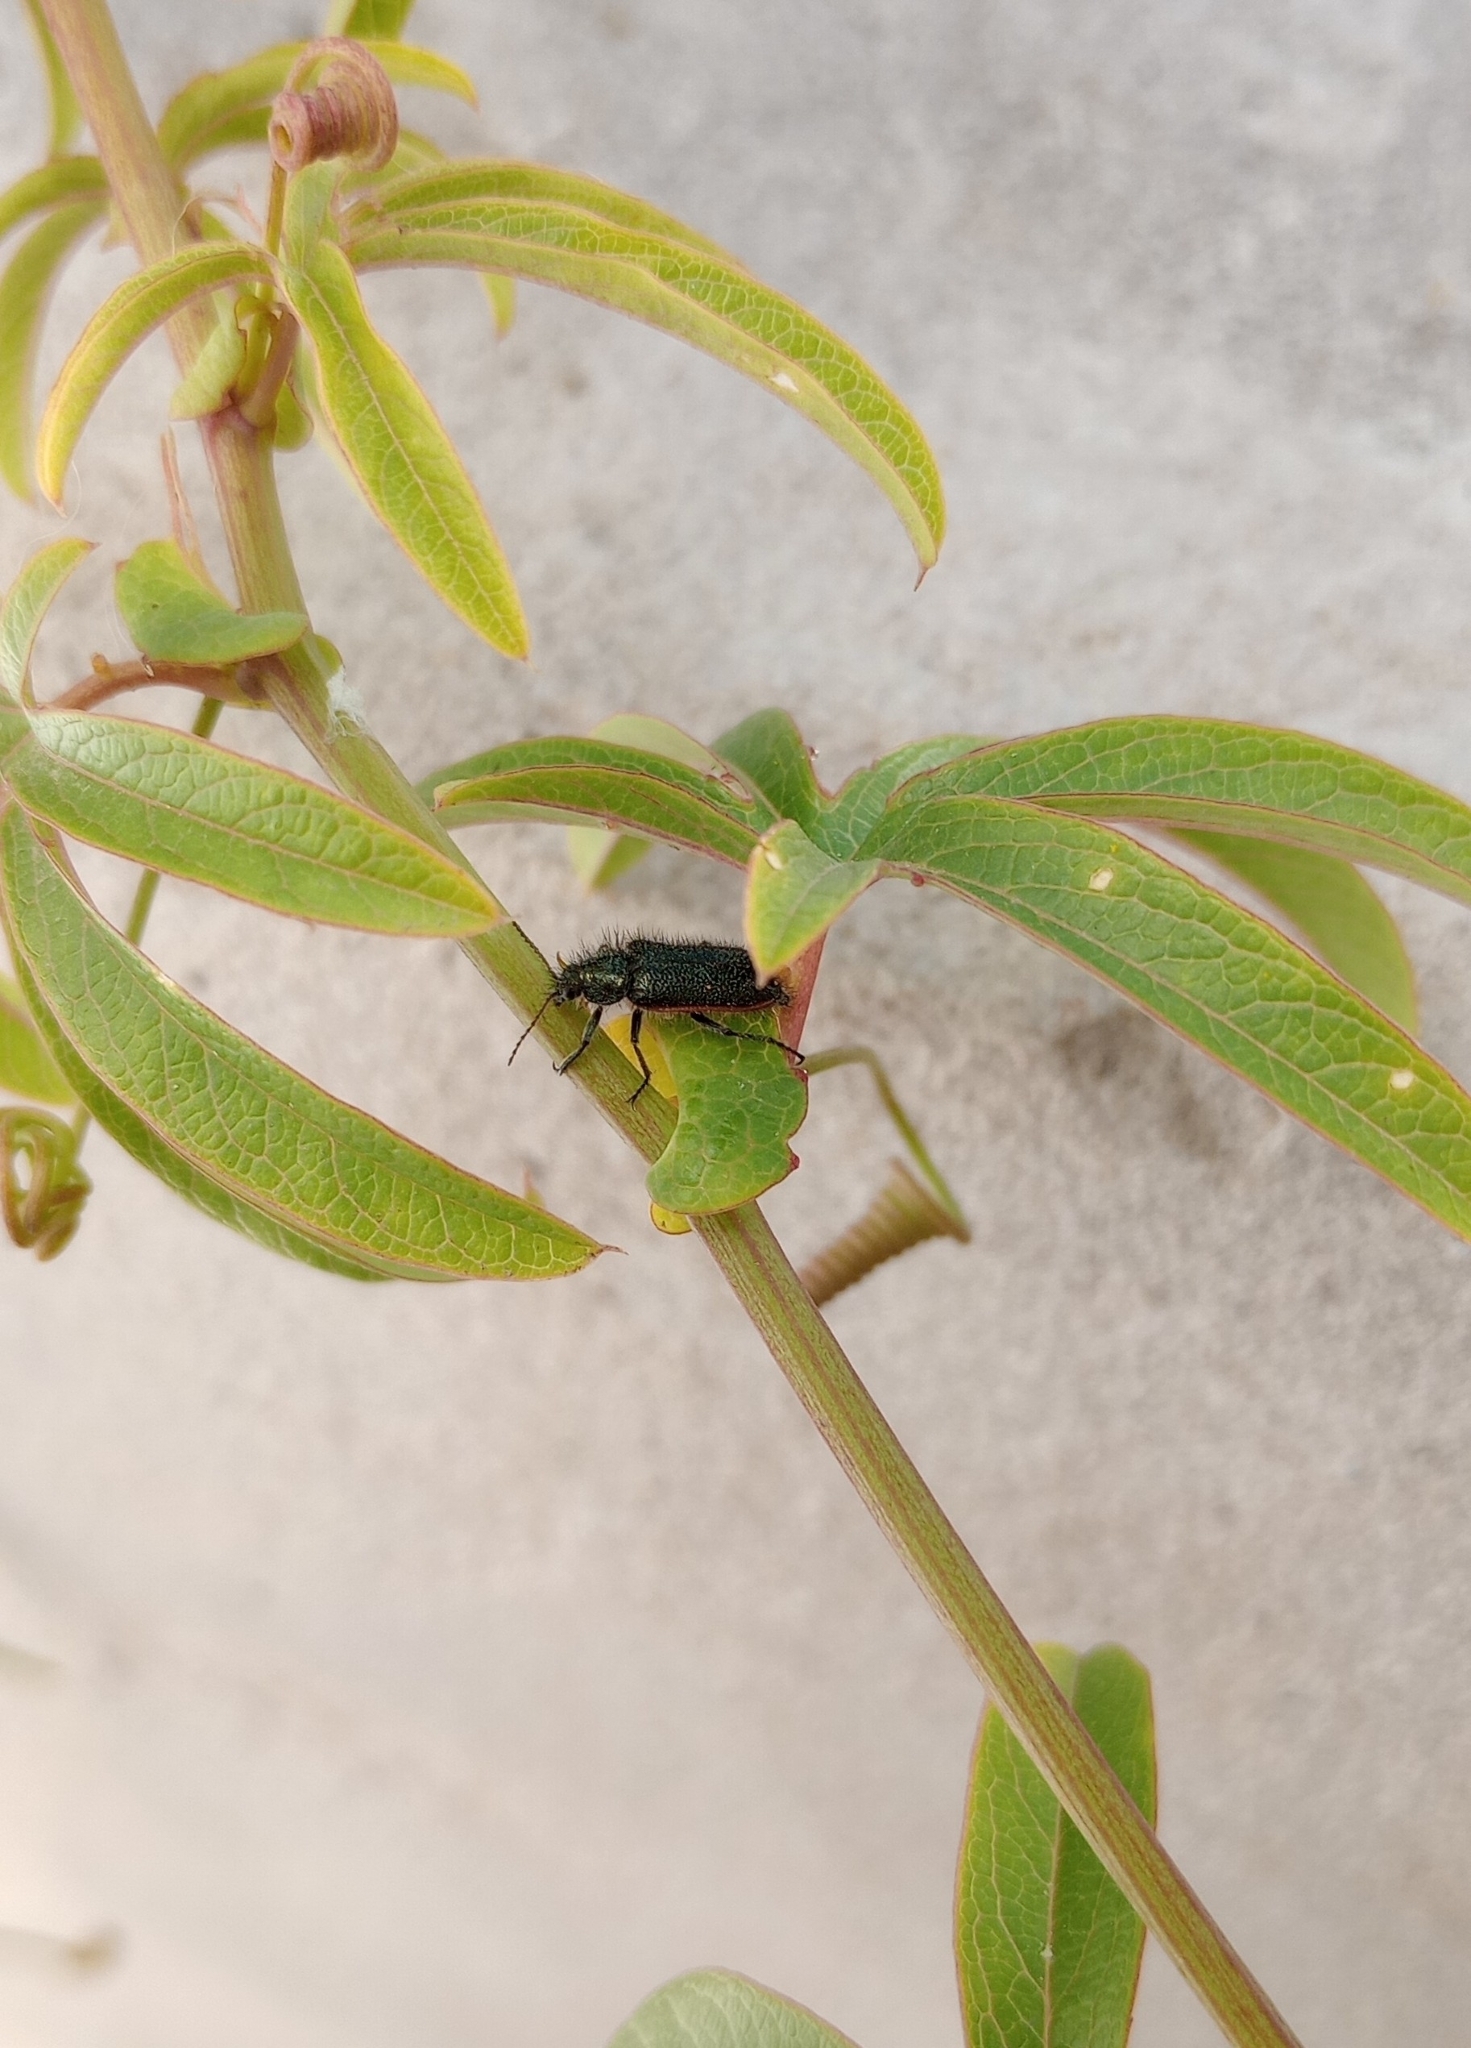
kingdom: Animalia
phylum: Arthropoda
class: Insecta
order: Coleoptera
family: Melyridae
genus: Astylus
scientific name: Astylus
